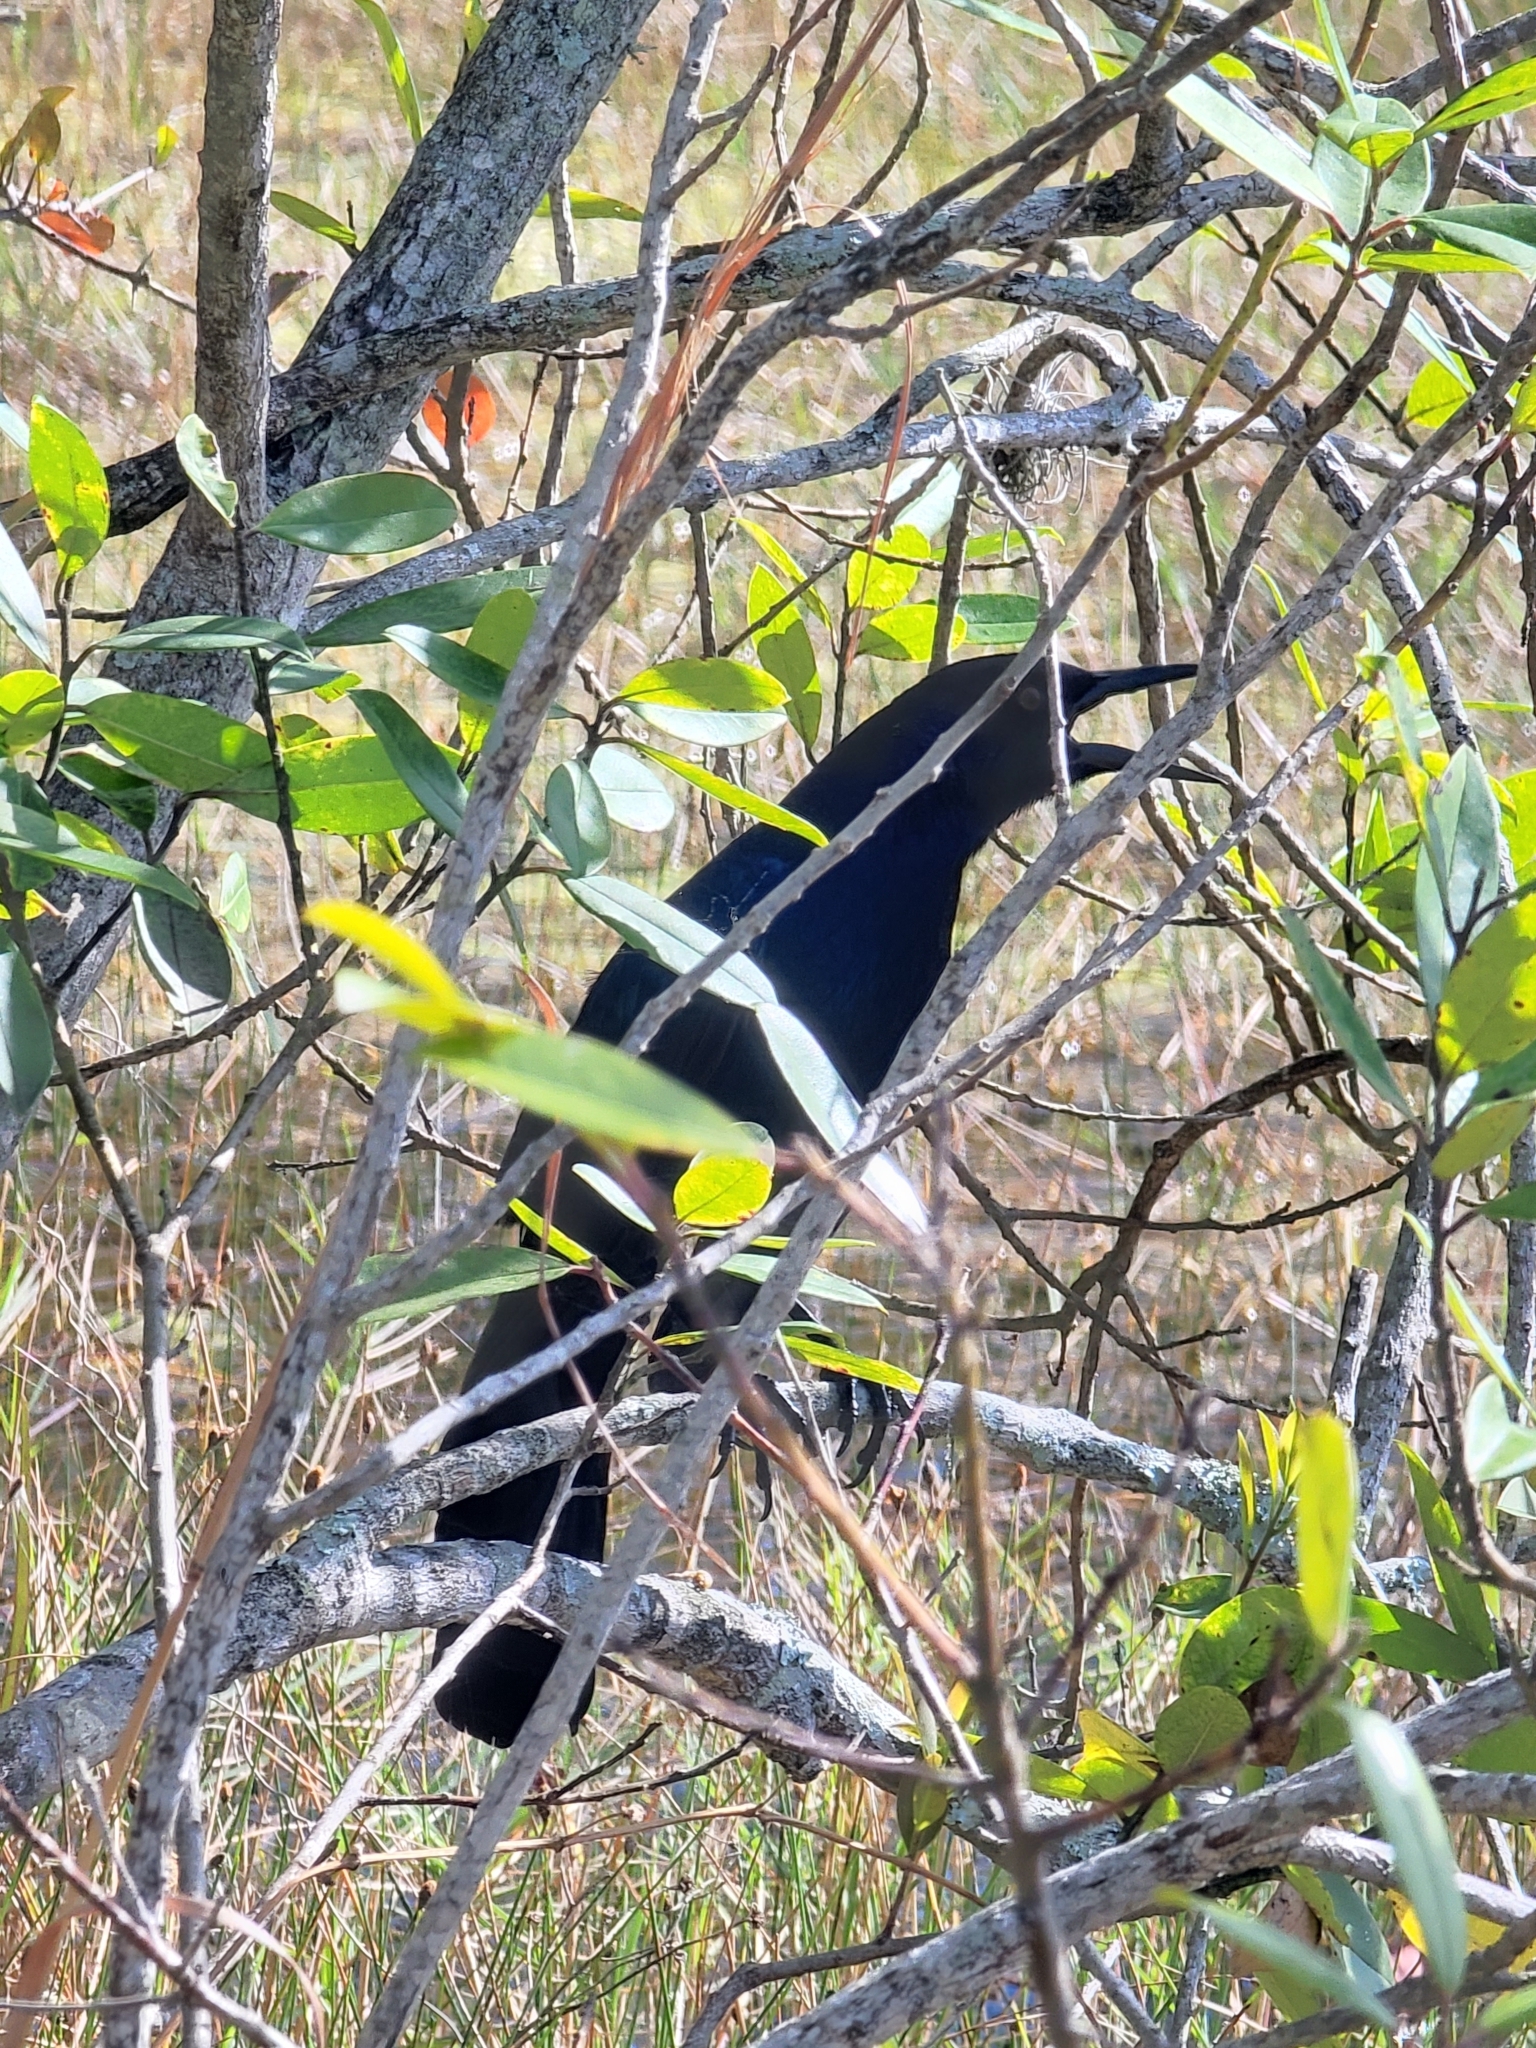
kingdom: Animalia
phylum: Chordata
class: Aves
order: Passeriformes
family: Icteridae
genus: Quiscalus
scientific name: Quiscalus major
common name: Boat-tailed grackle
